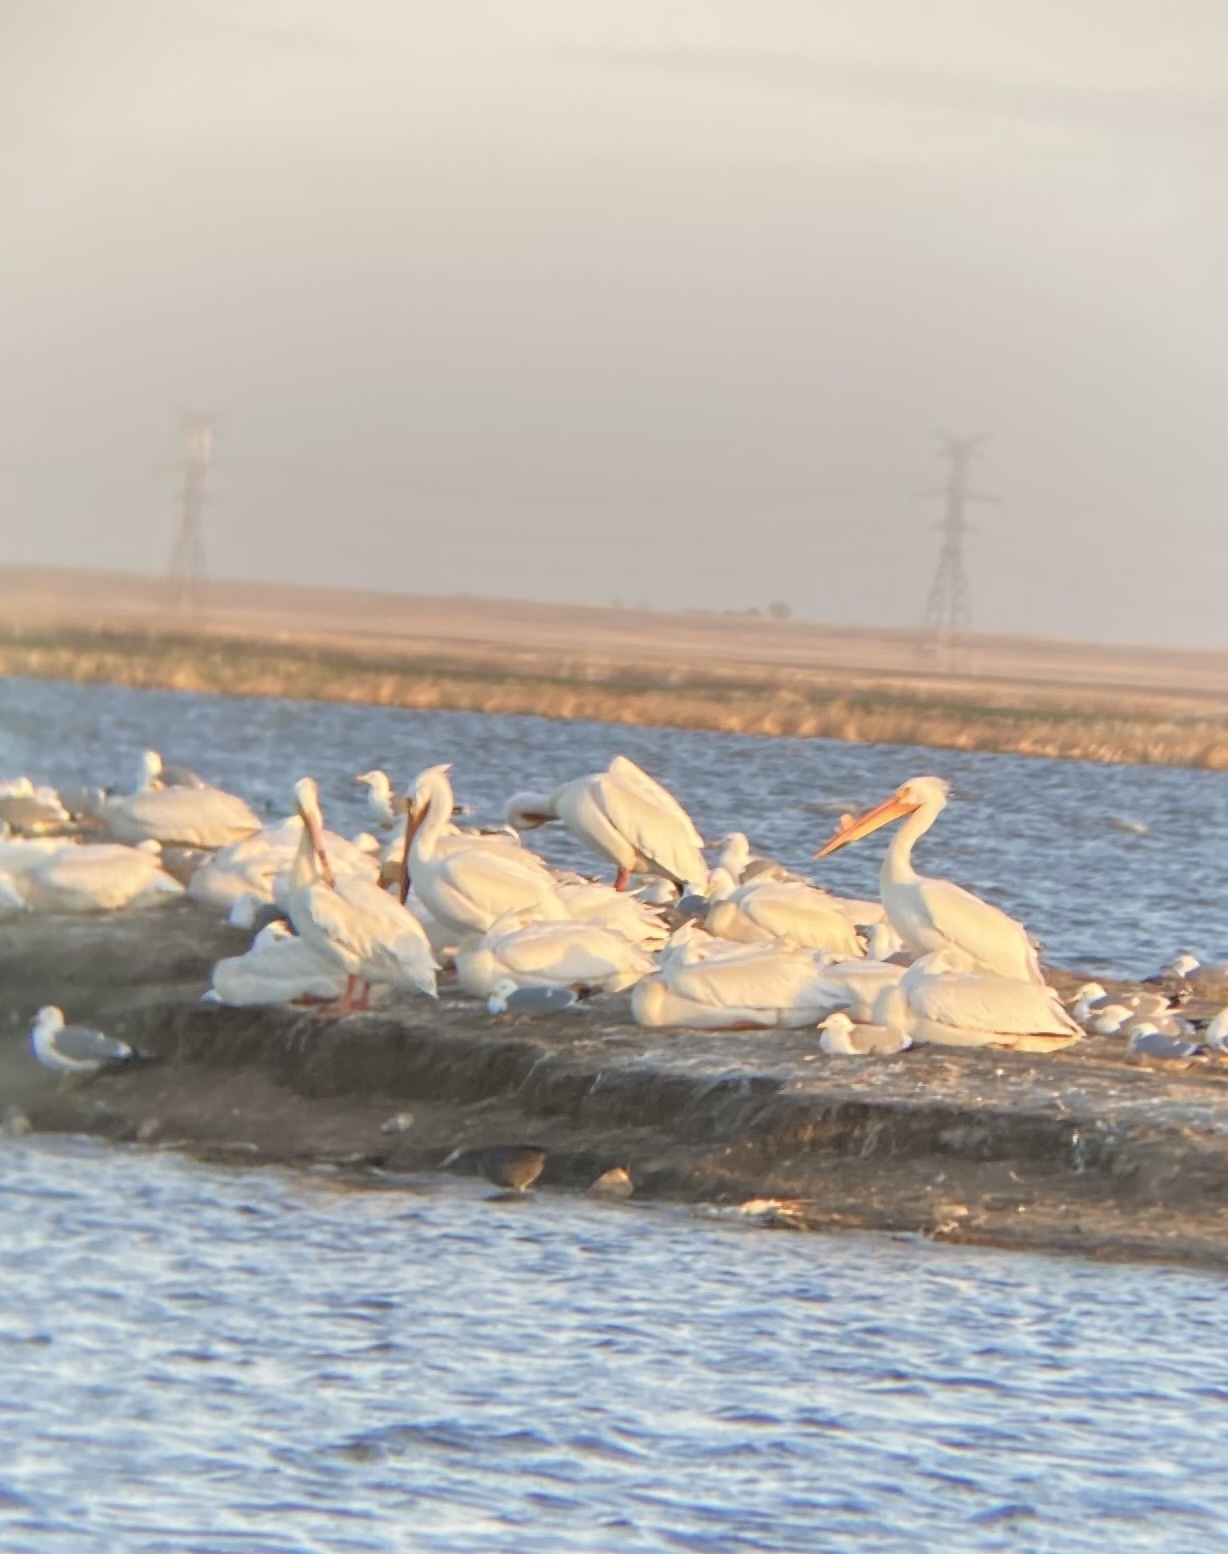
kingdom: Animalia
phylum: Chordata
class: Aves
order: Pelecaniformes
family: Pelecanidae
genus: Pelecanus
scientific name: Pelecanus erythrorhynchos
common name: American white pelican
